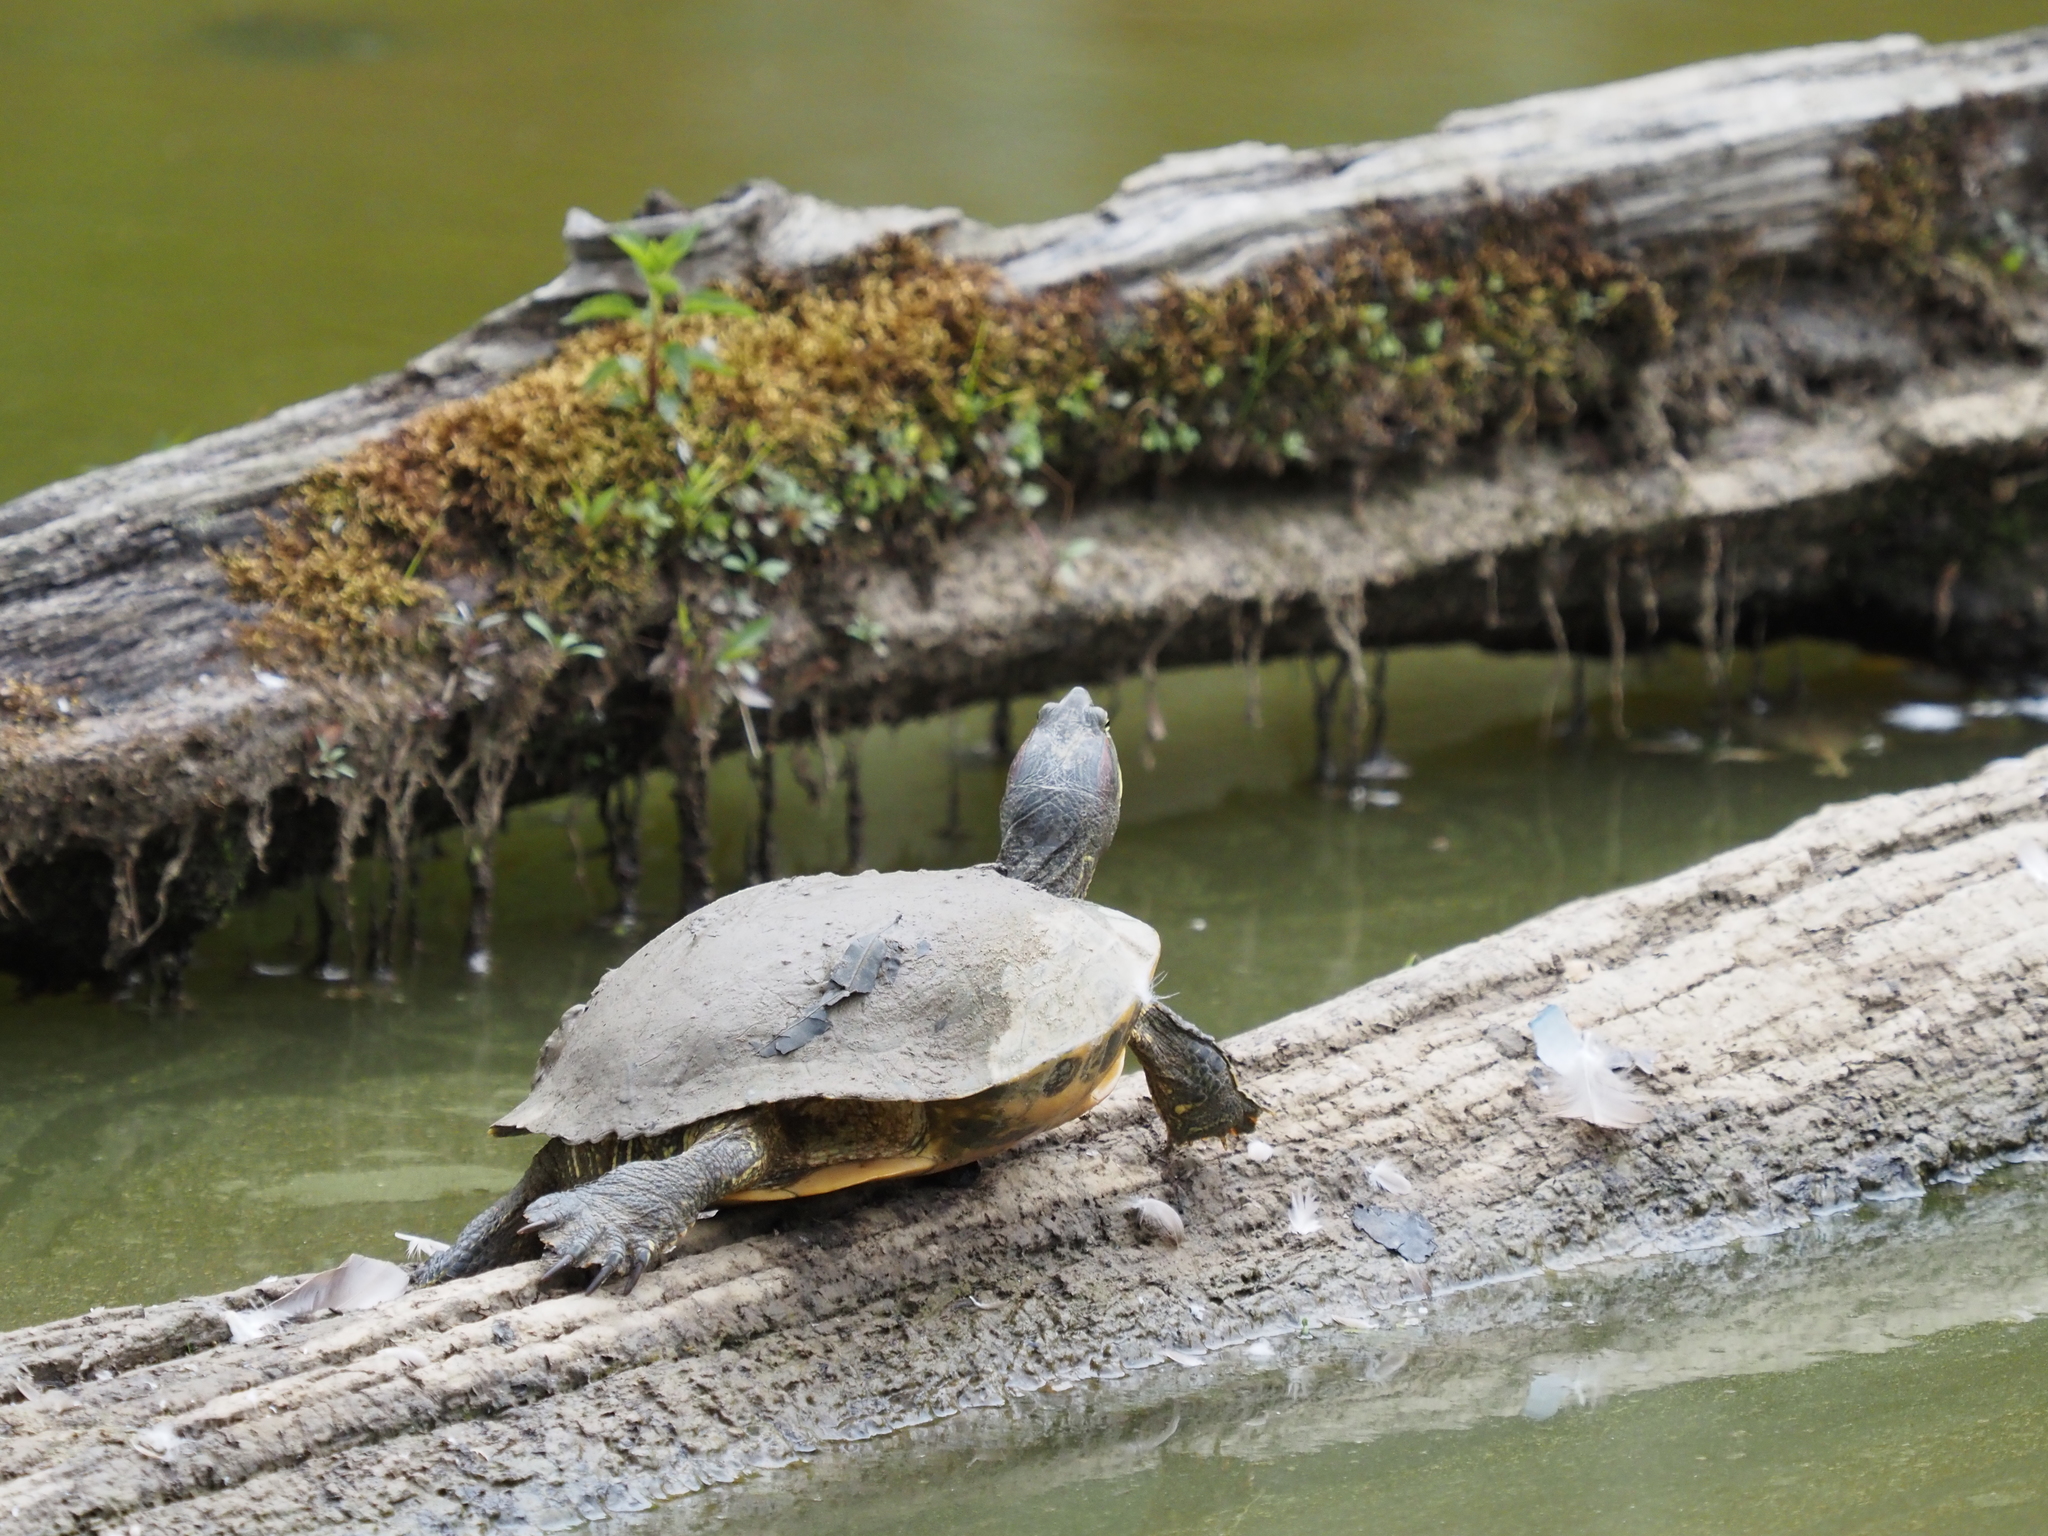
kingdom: Animalia
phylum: Chordata
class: Testudines
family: Emydidae
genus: Trachemys
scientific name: Trachemys scripta
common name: Slider
